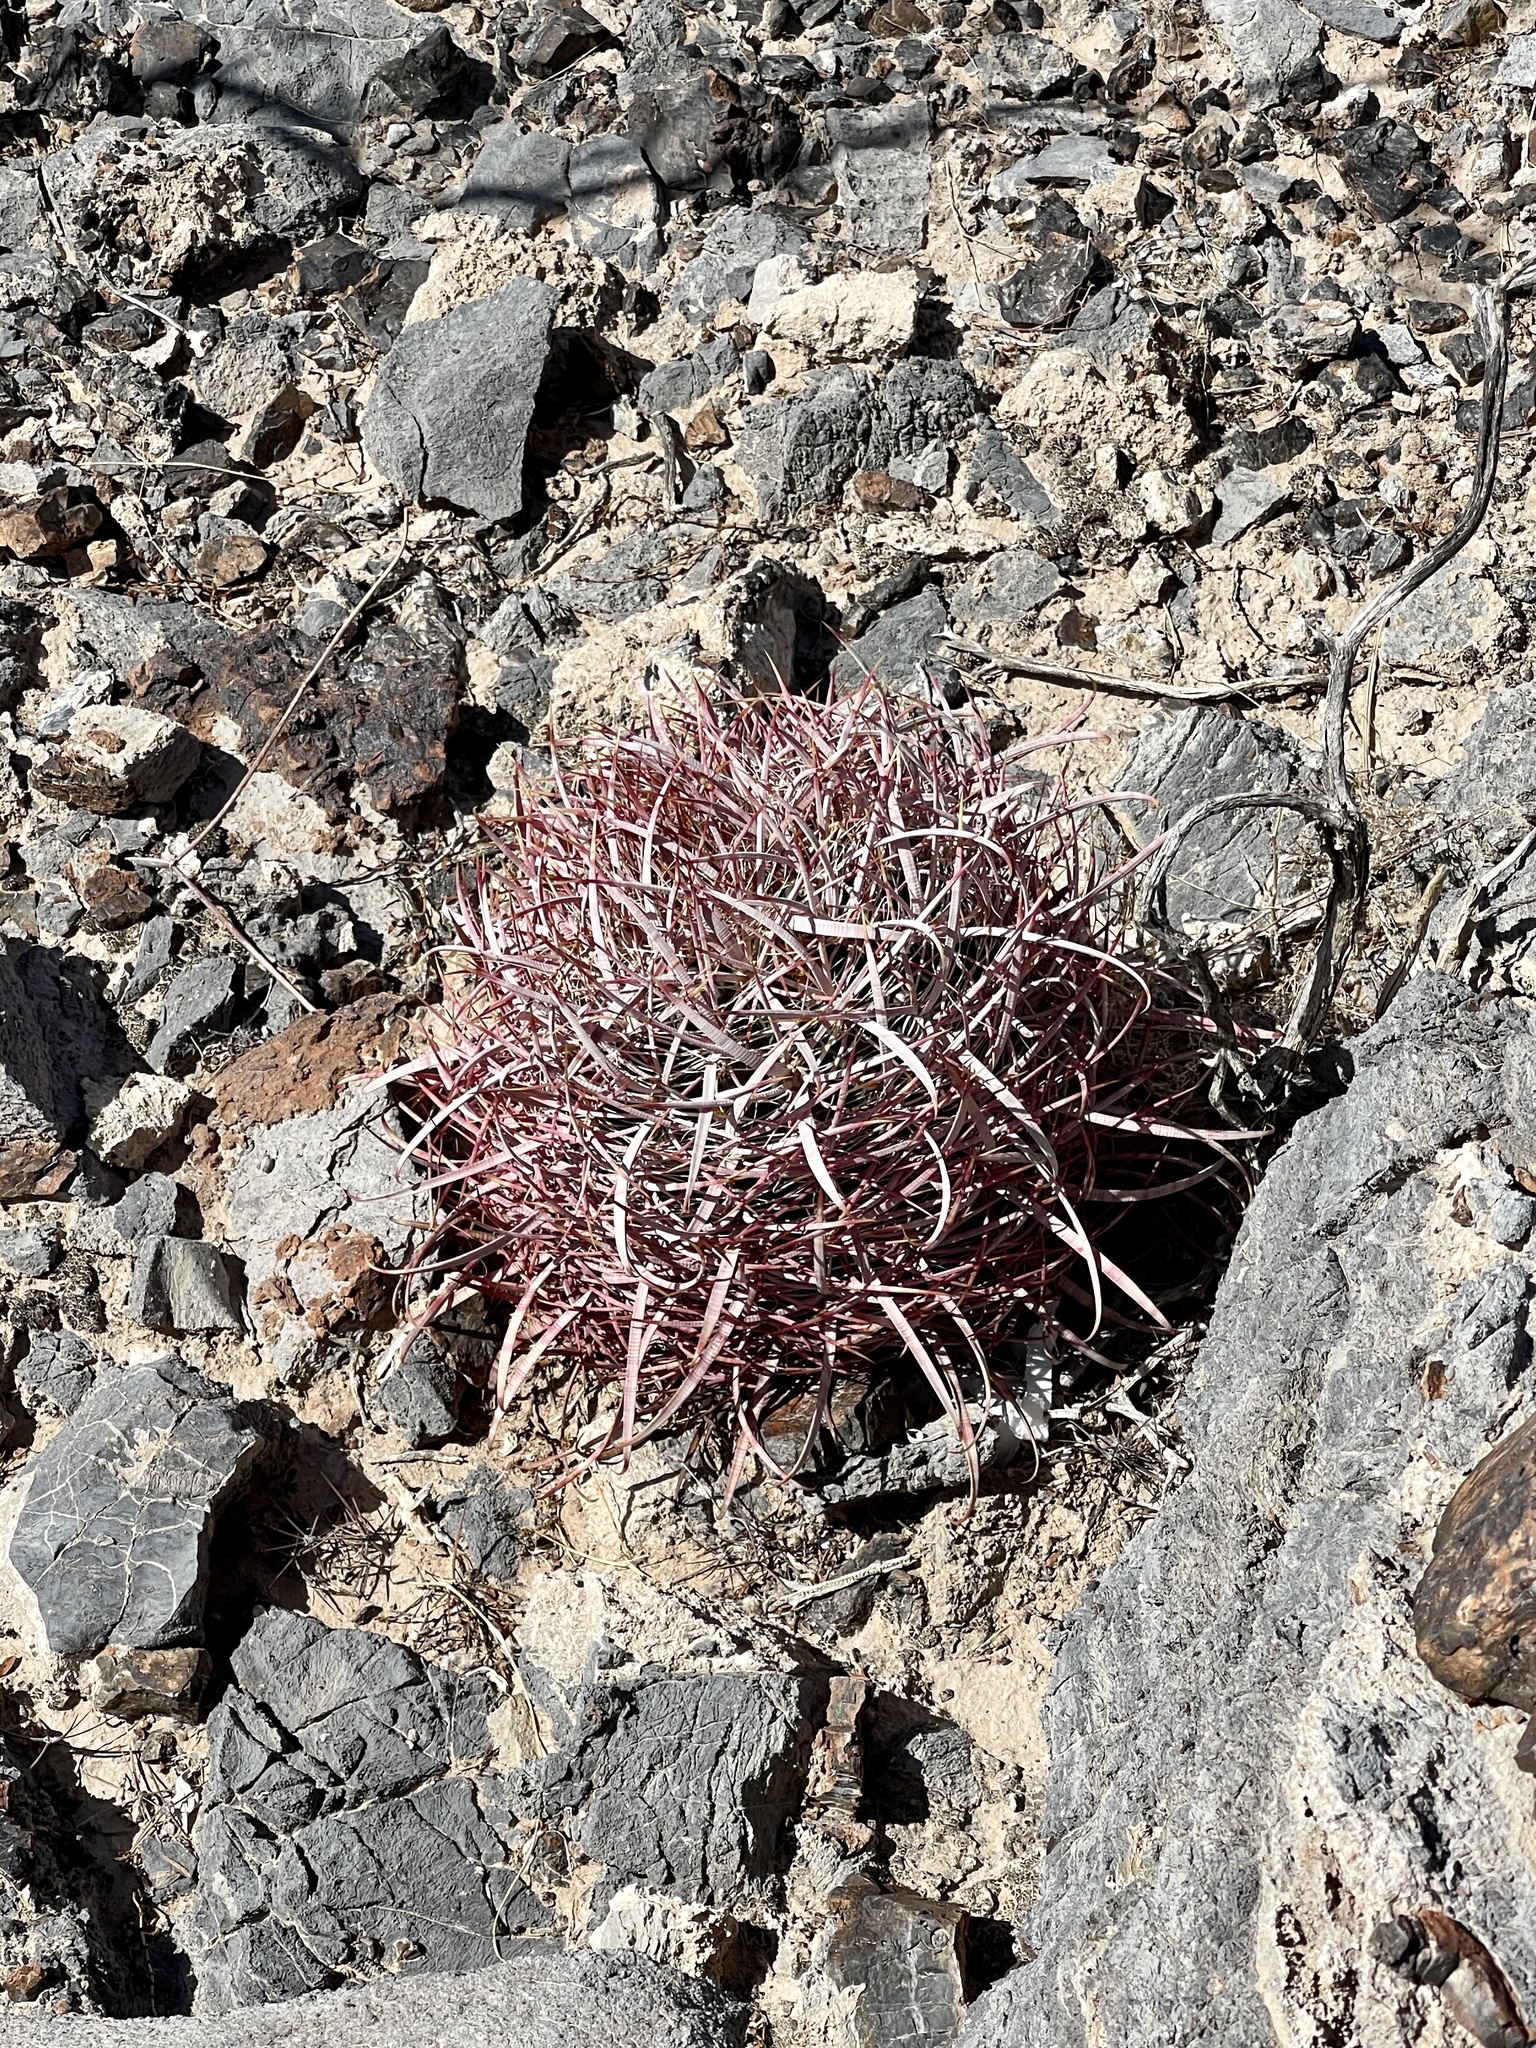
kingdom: Plantae
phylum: Tracheophyta
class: Magnoliopsida
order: Caryophyllales
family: Cactaceae
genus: Ferocactus
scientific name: Ferocactus cylindraceus
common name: California barrel cactus
